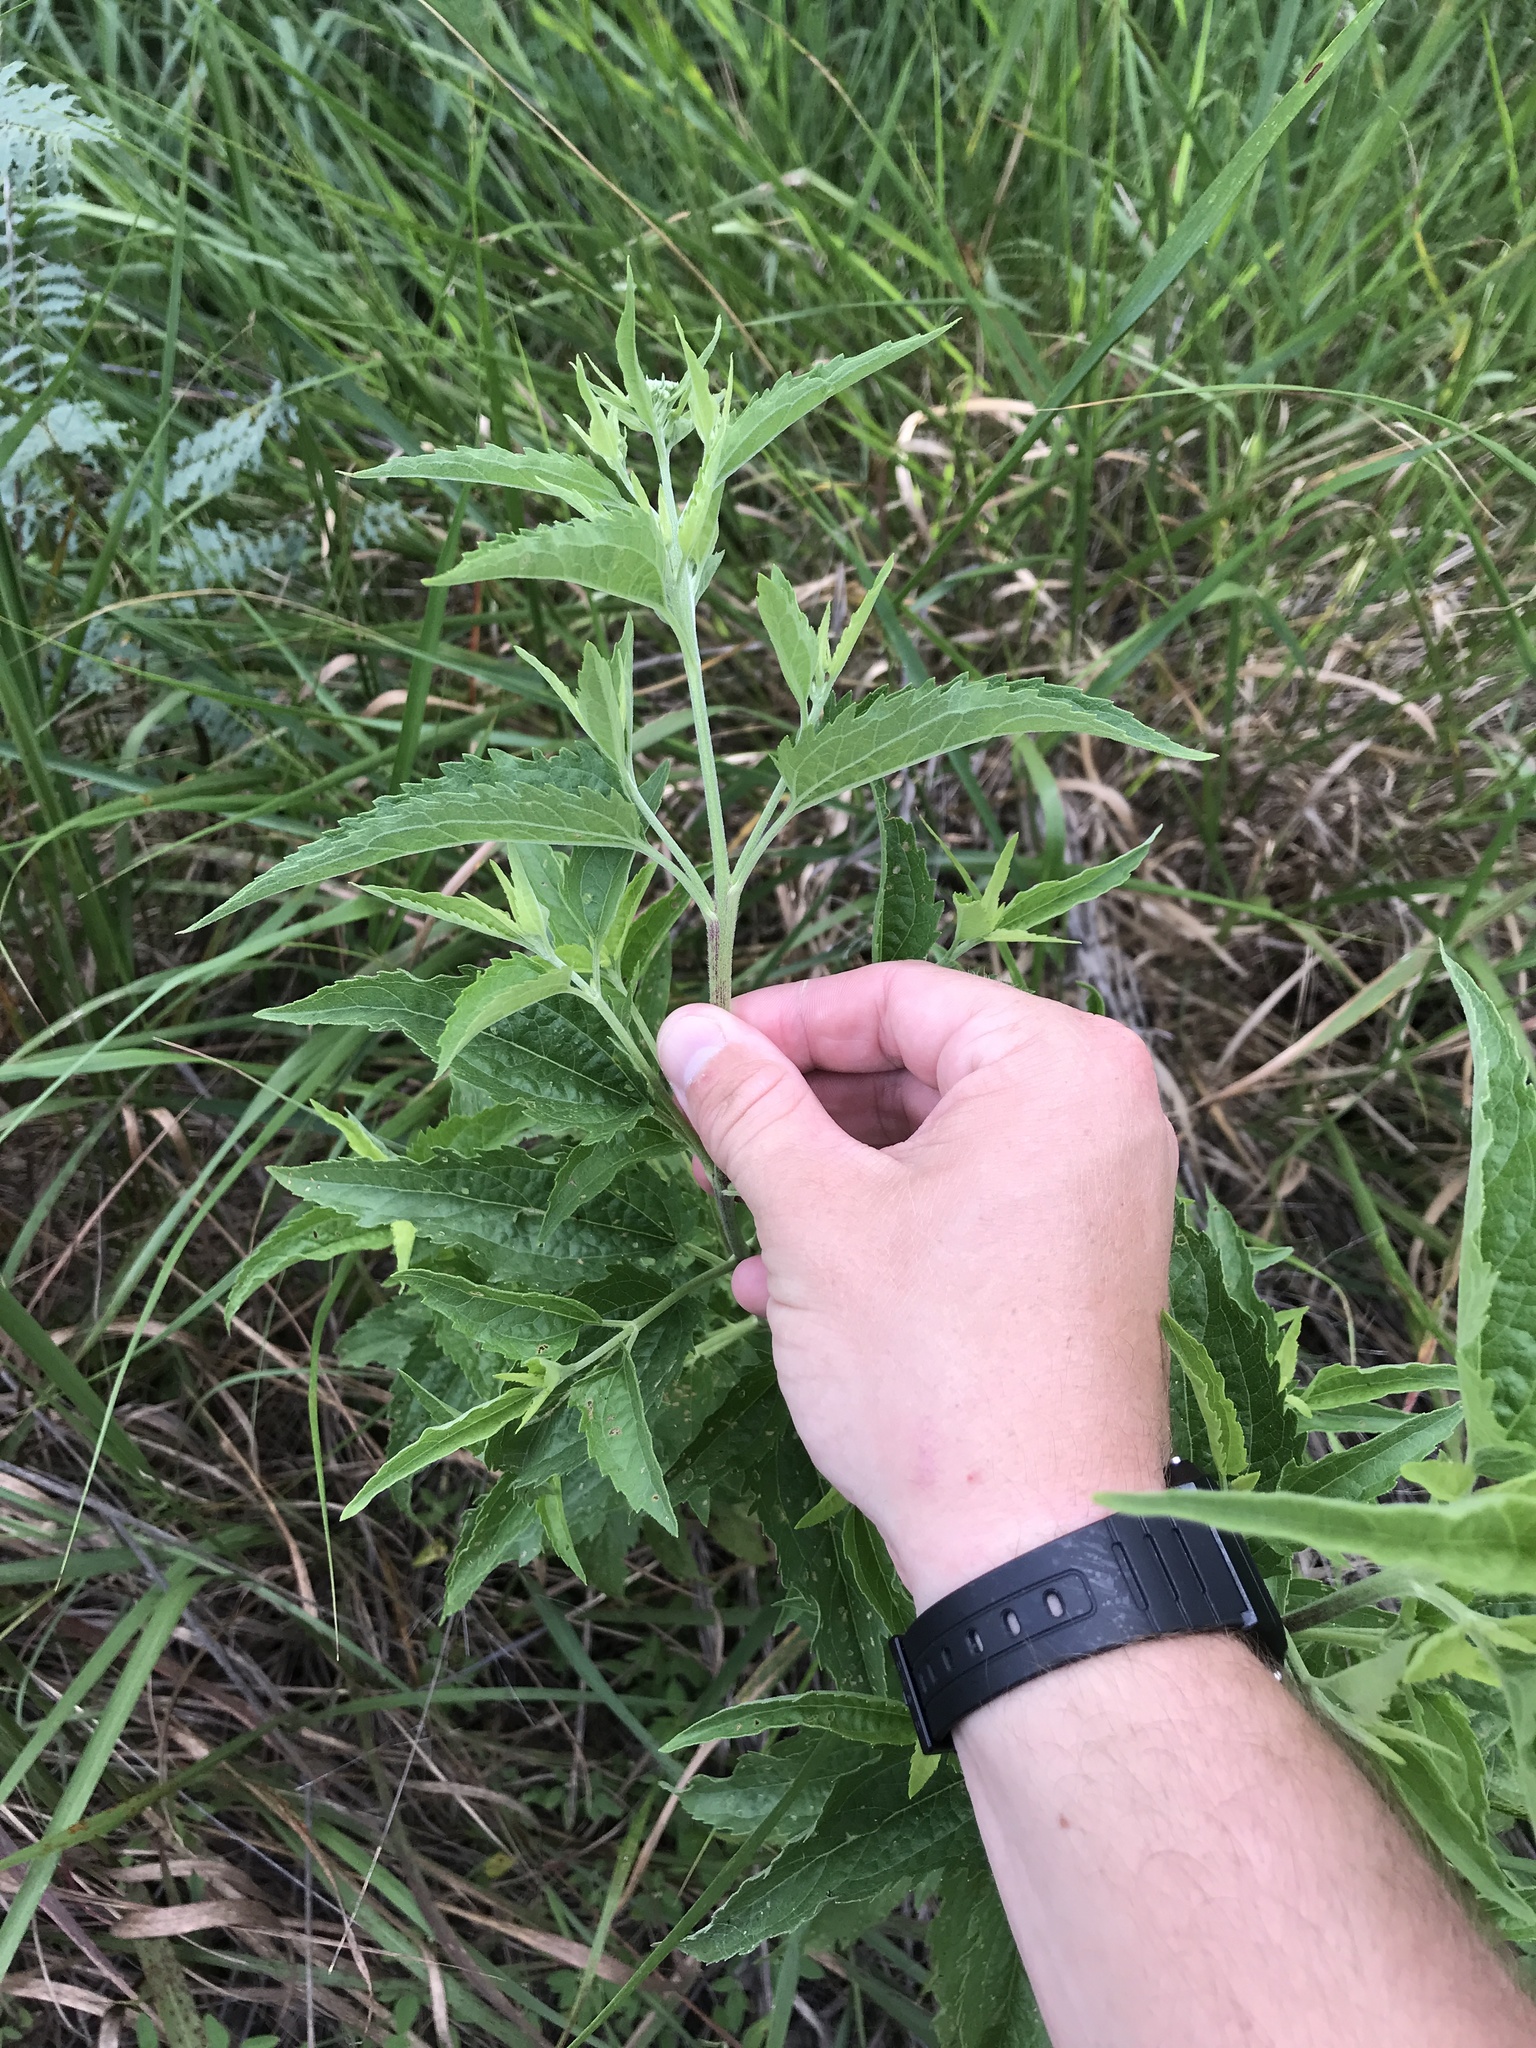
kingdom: Plantae
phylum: Tracheophyta
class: Magnoliopsida
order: Asterales
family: Asteraceae
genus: Eupatorium
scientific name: Eupatorium serotinum
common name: Late boneset
